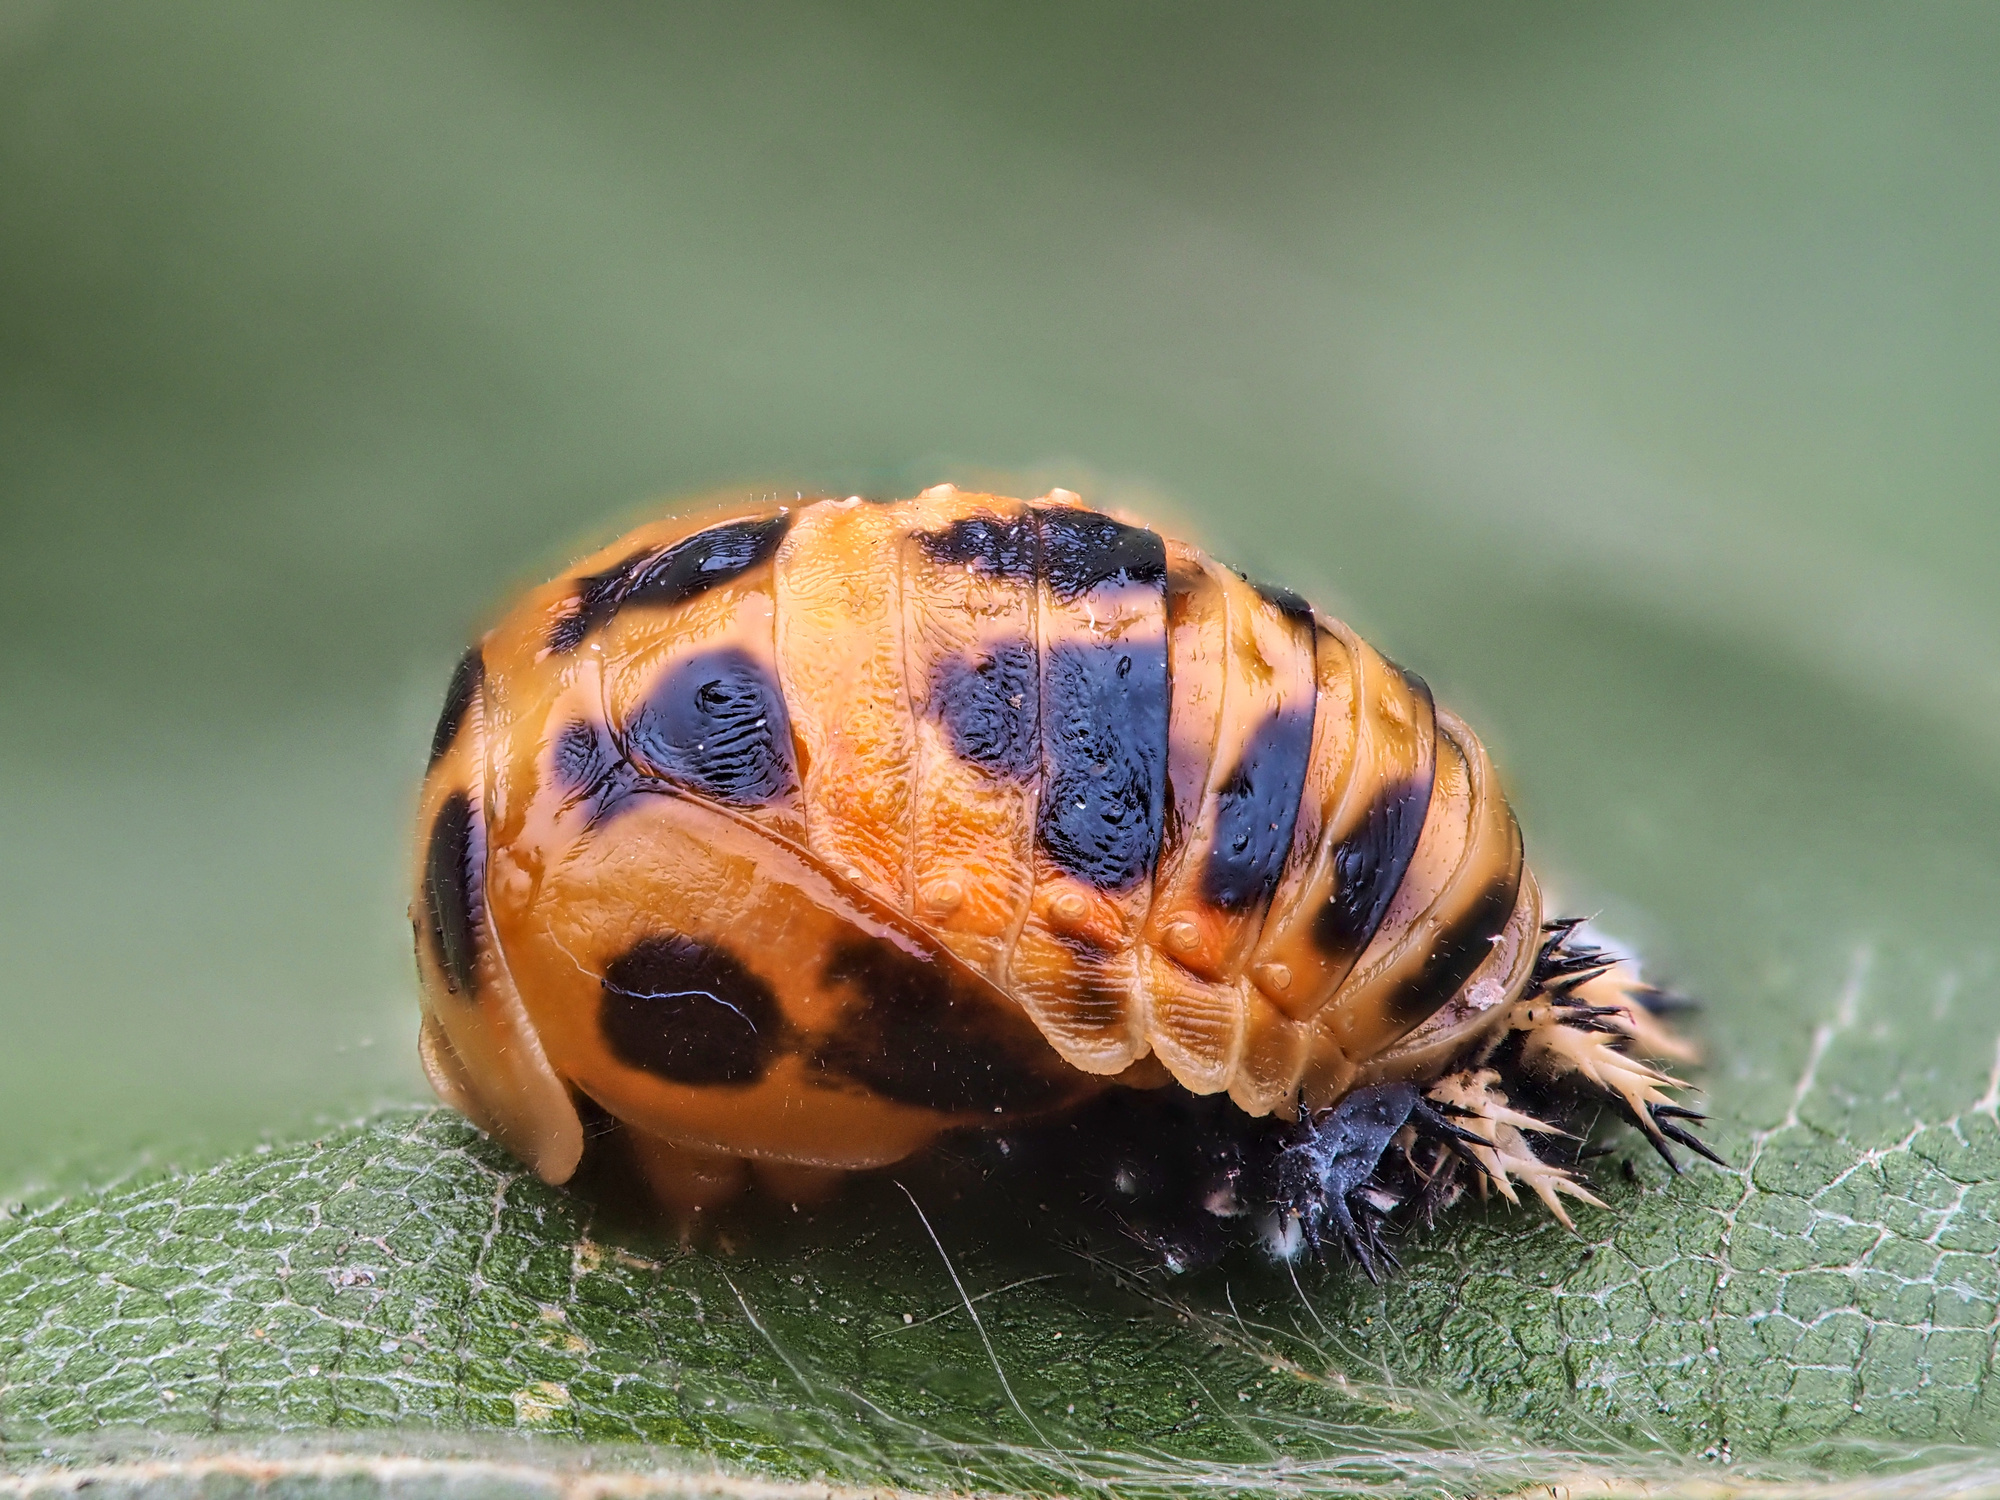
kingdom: Animalia
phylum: Arthropoda
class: Insecta
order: Coleoptera
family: Coccinellidae
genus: Harmonia
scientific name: Harmonia axyridis
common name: Harlequin ladybird
